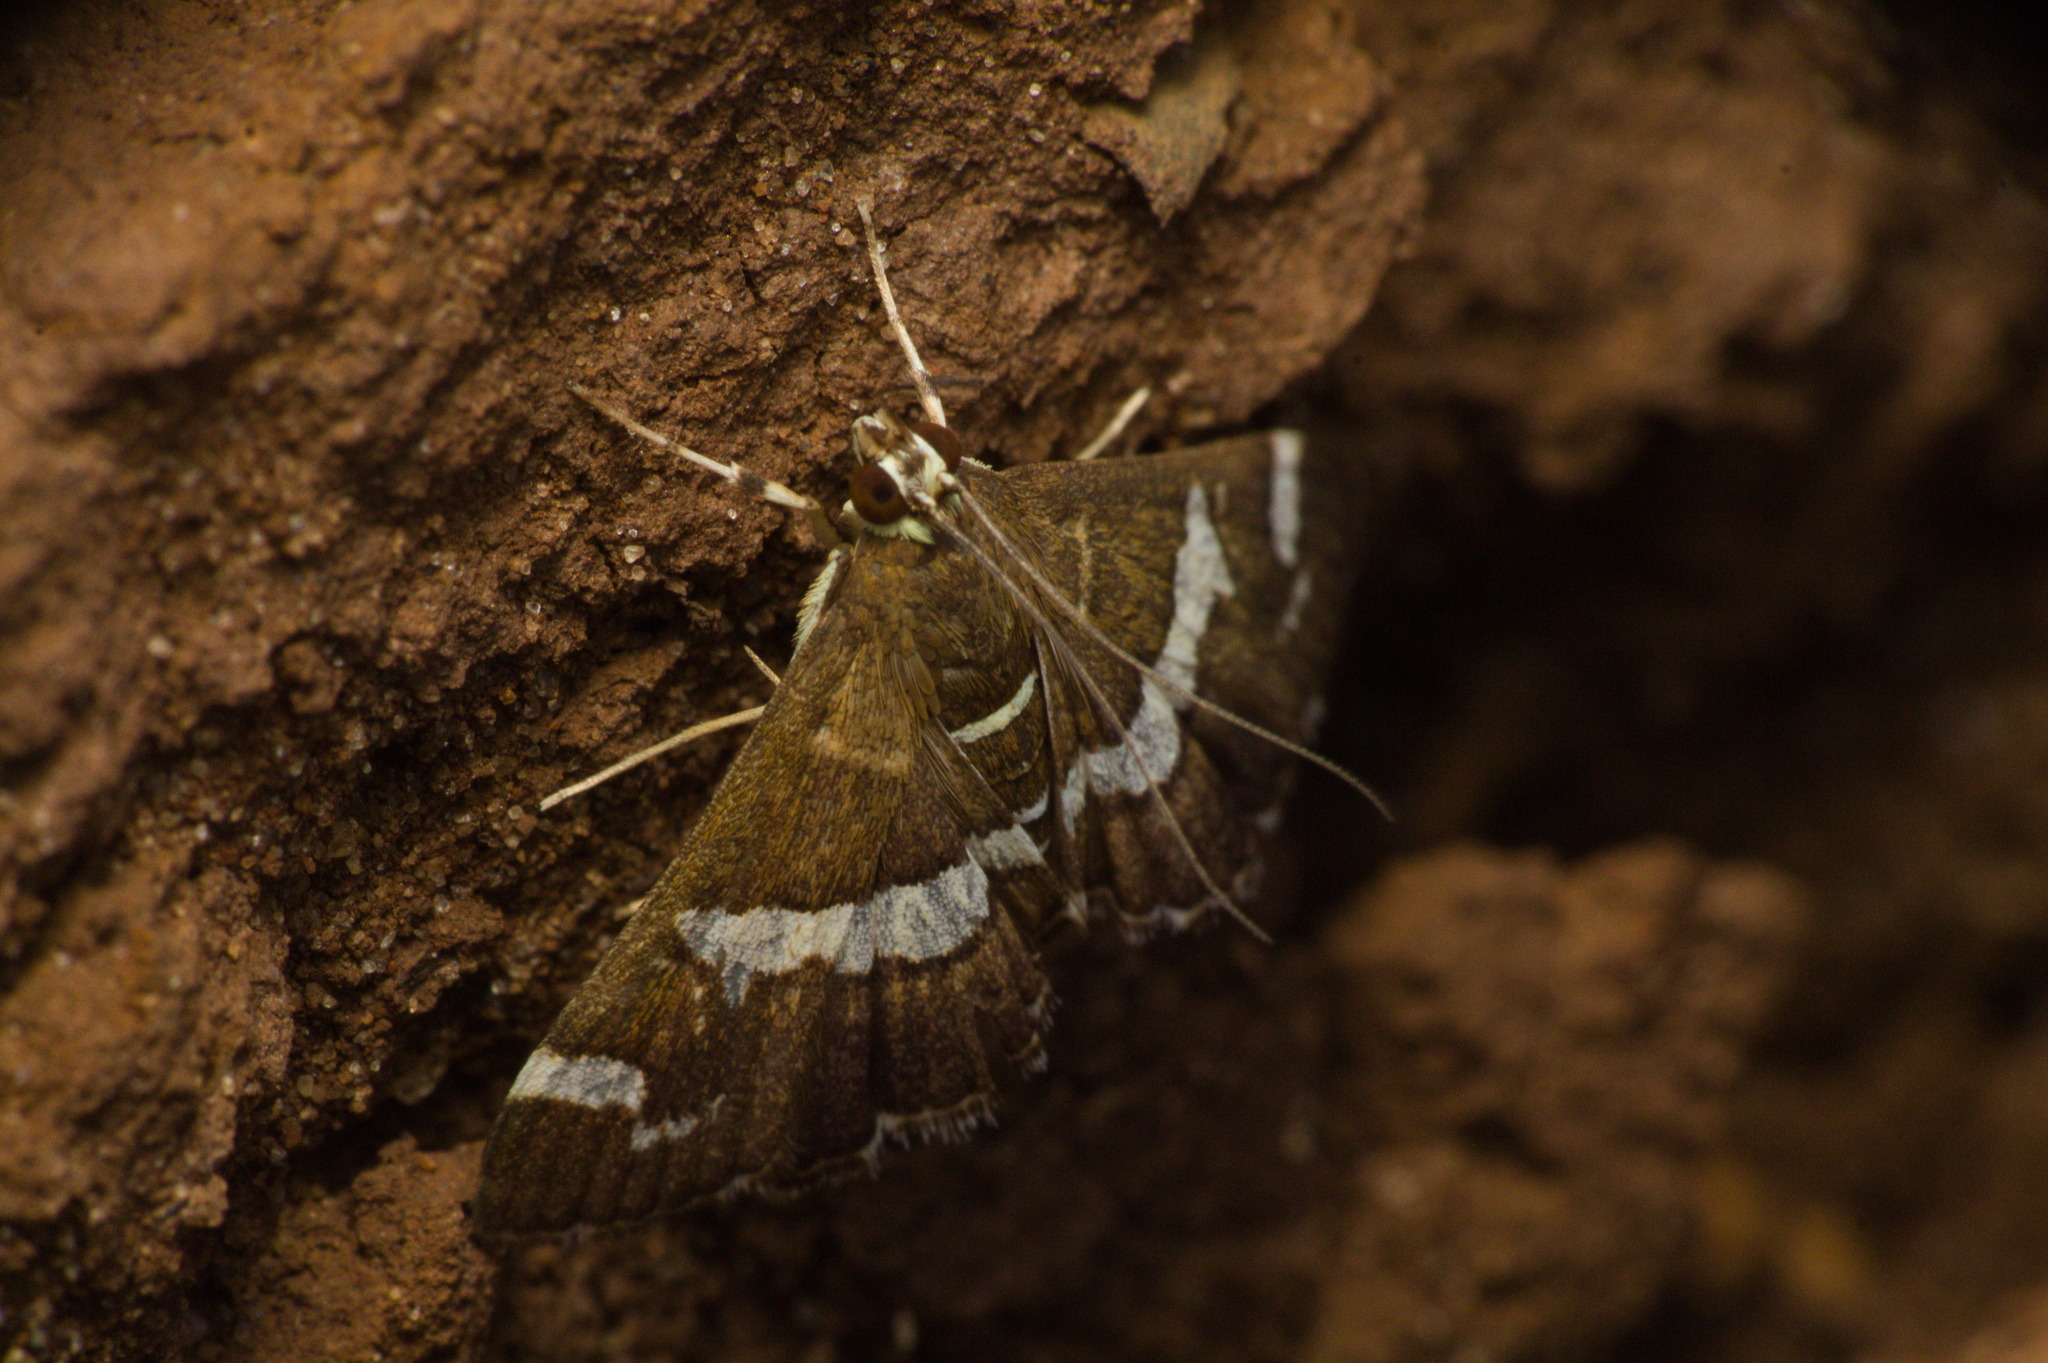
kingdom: Animalia
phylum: Arthropoda
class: Insecta
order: Lepidoptera
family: Crambidae
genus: Spoladea
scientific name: Spoladea recurvalis
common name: Beet webworm moth
